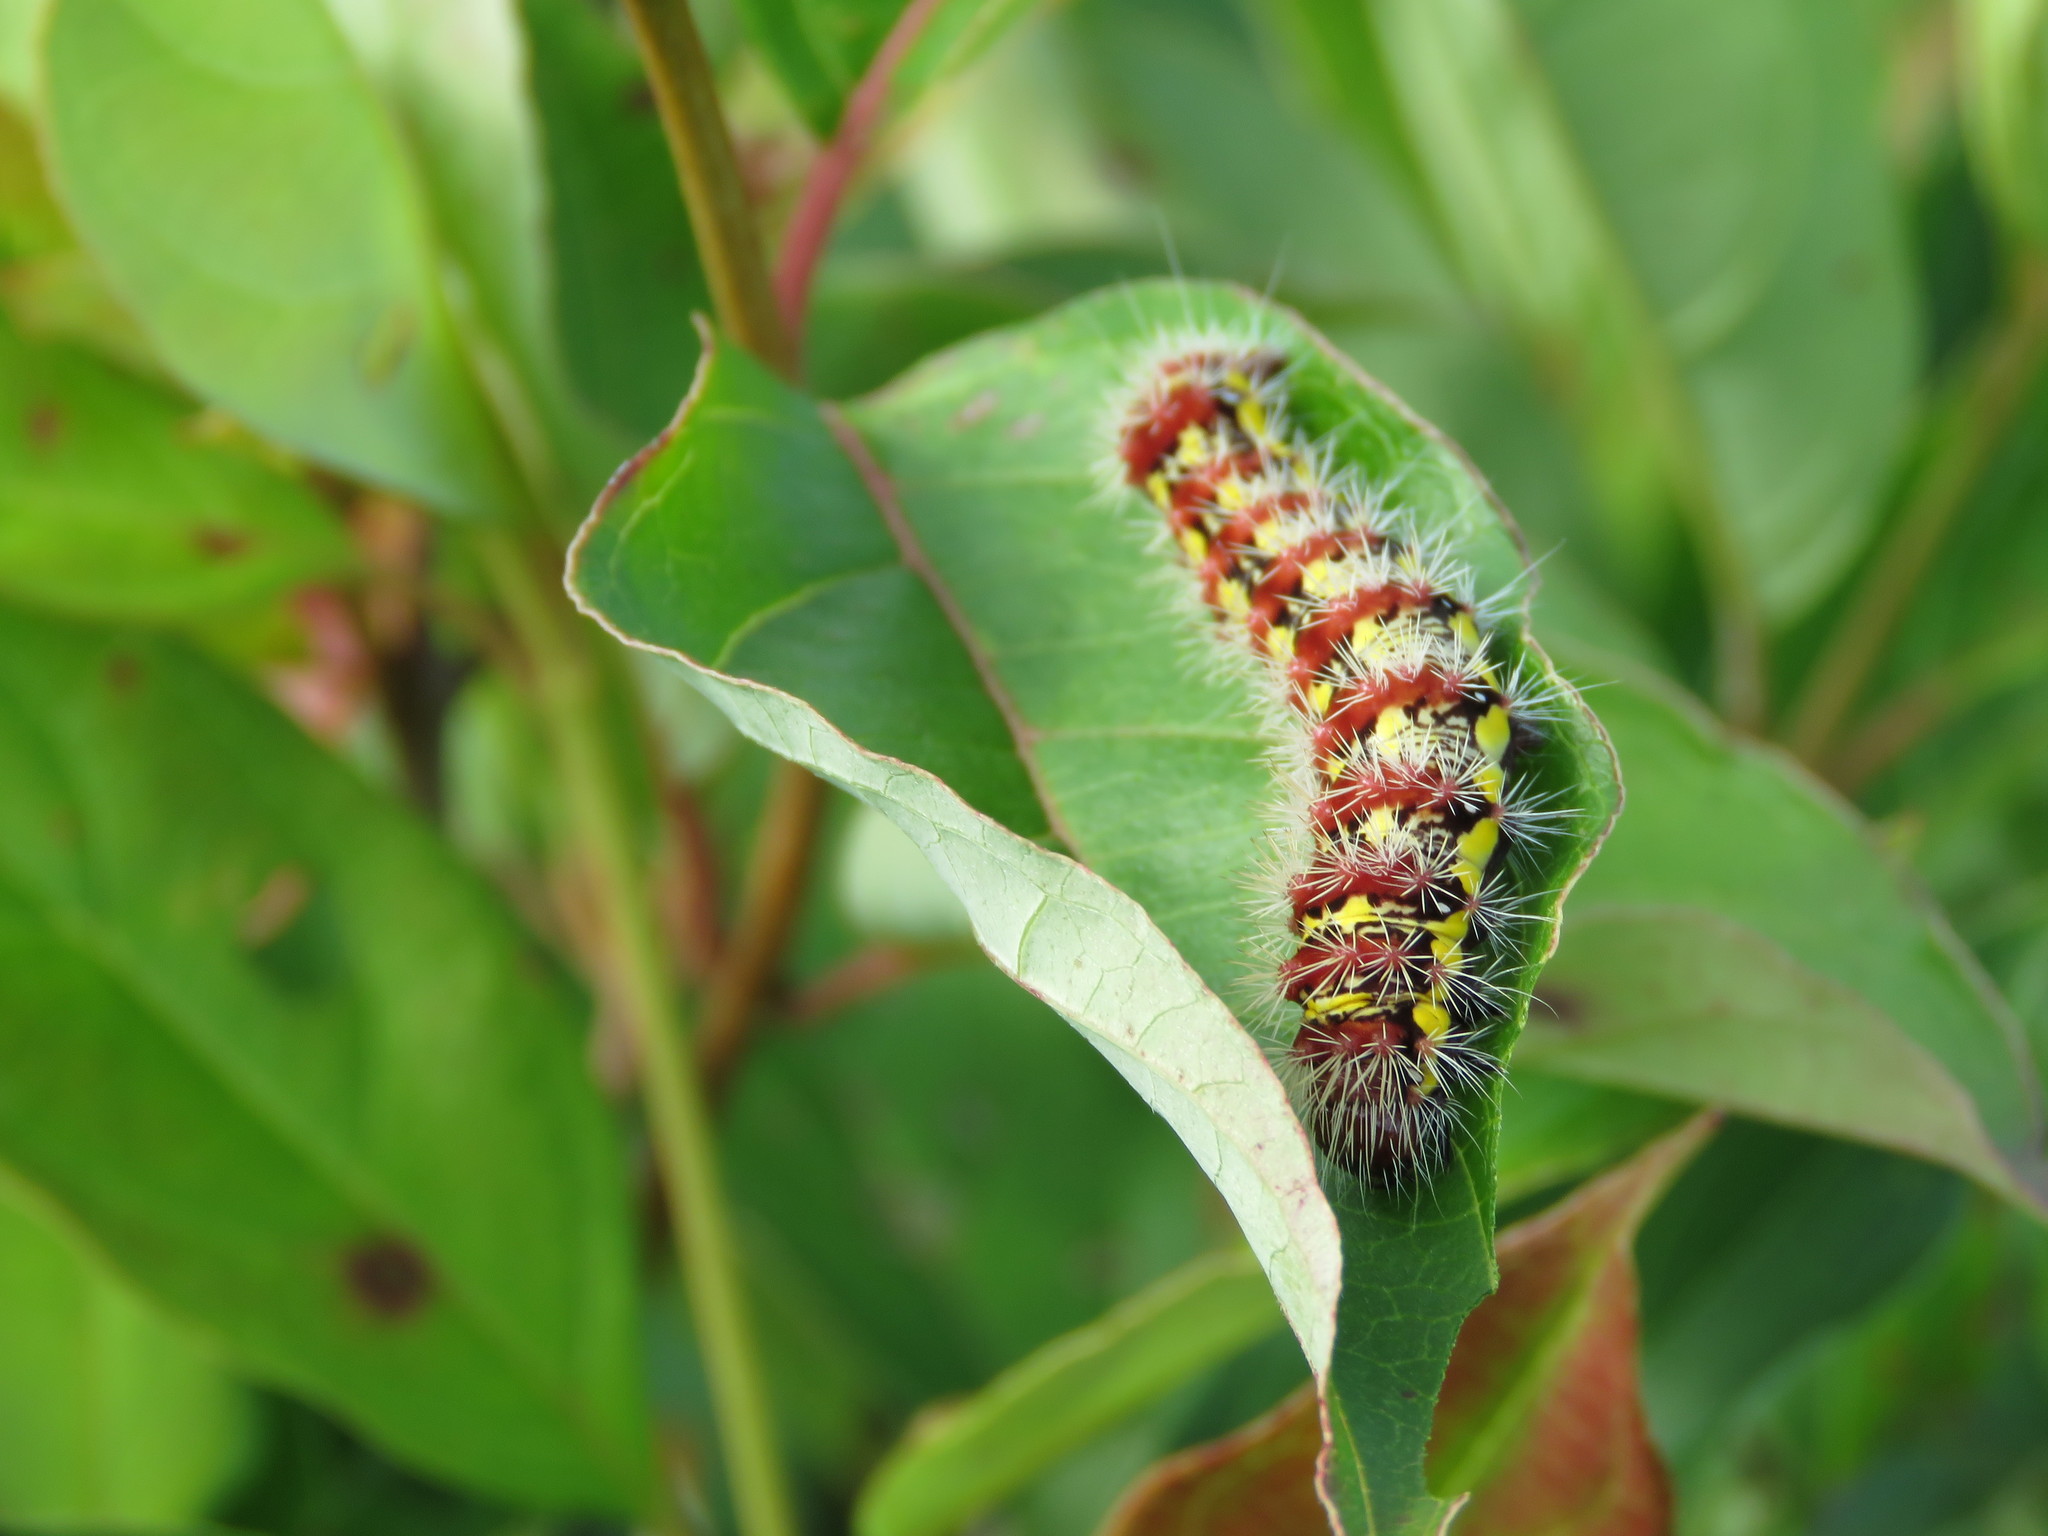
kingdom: Animalia
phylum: Arthropoda
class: Insecta
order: Lepidoptera
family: Noctuidae
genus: Acronicta
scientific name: Acronicta oblinita
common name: Smeared dagger
